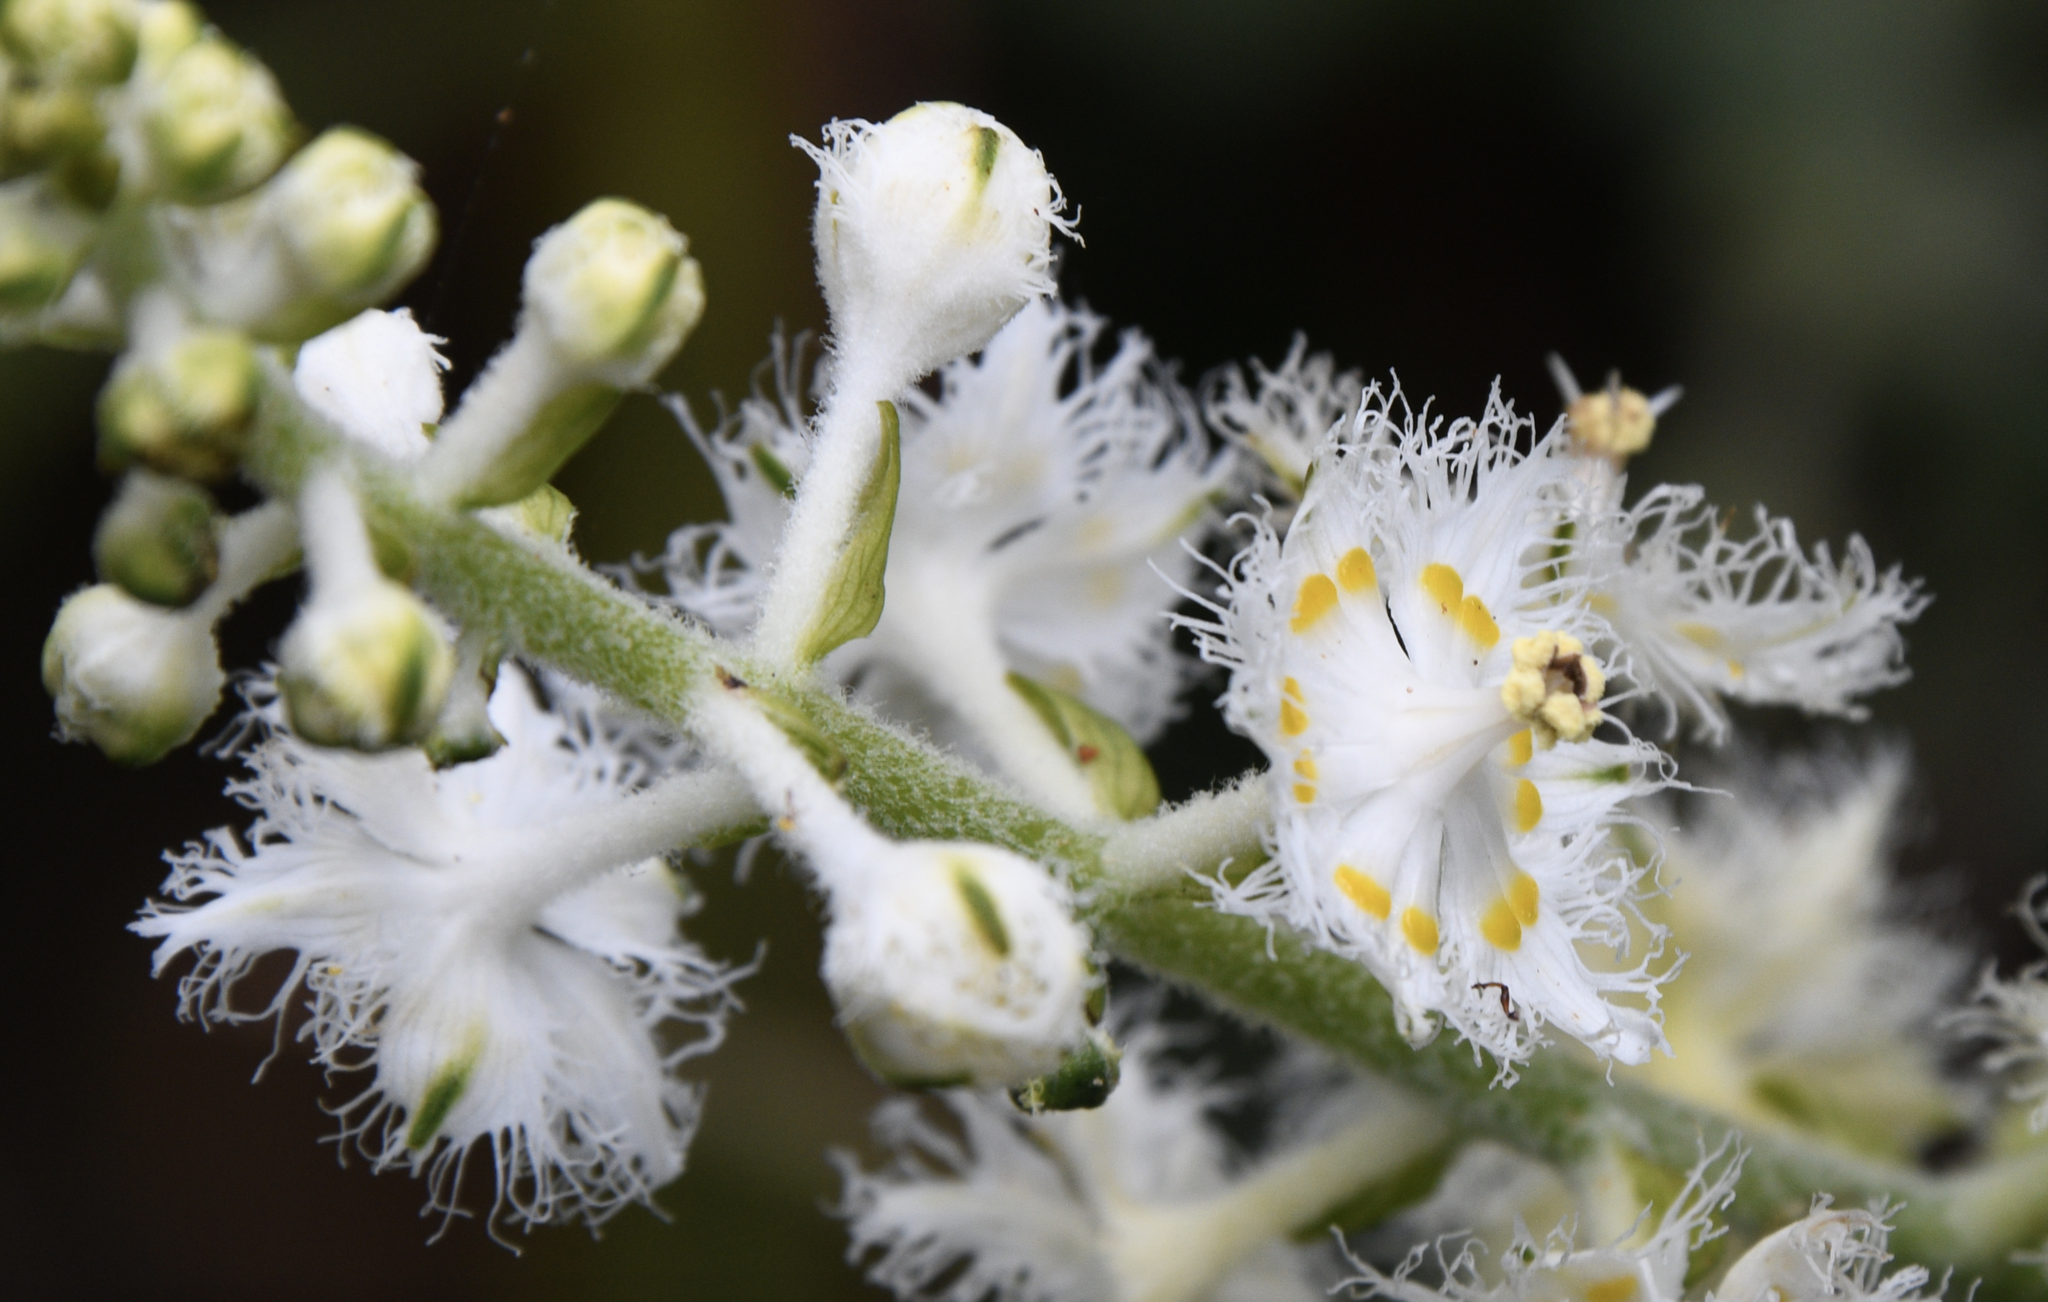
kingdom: Plantae
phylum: Tracheophyta
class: Liliopsida
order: Liliales
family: Melanthiaceae
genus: Veratrum
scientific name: Veratrum fimbriatum
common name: Fringe false hellobore
